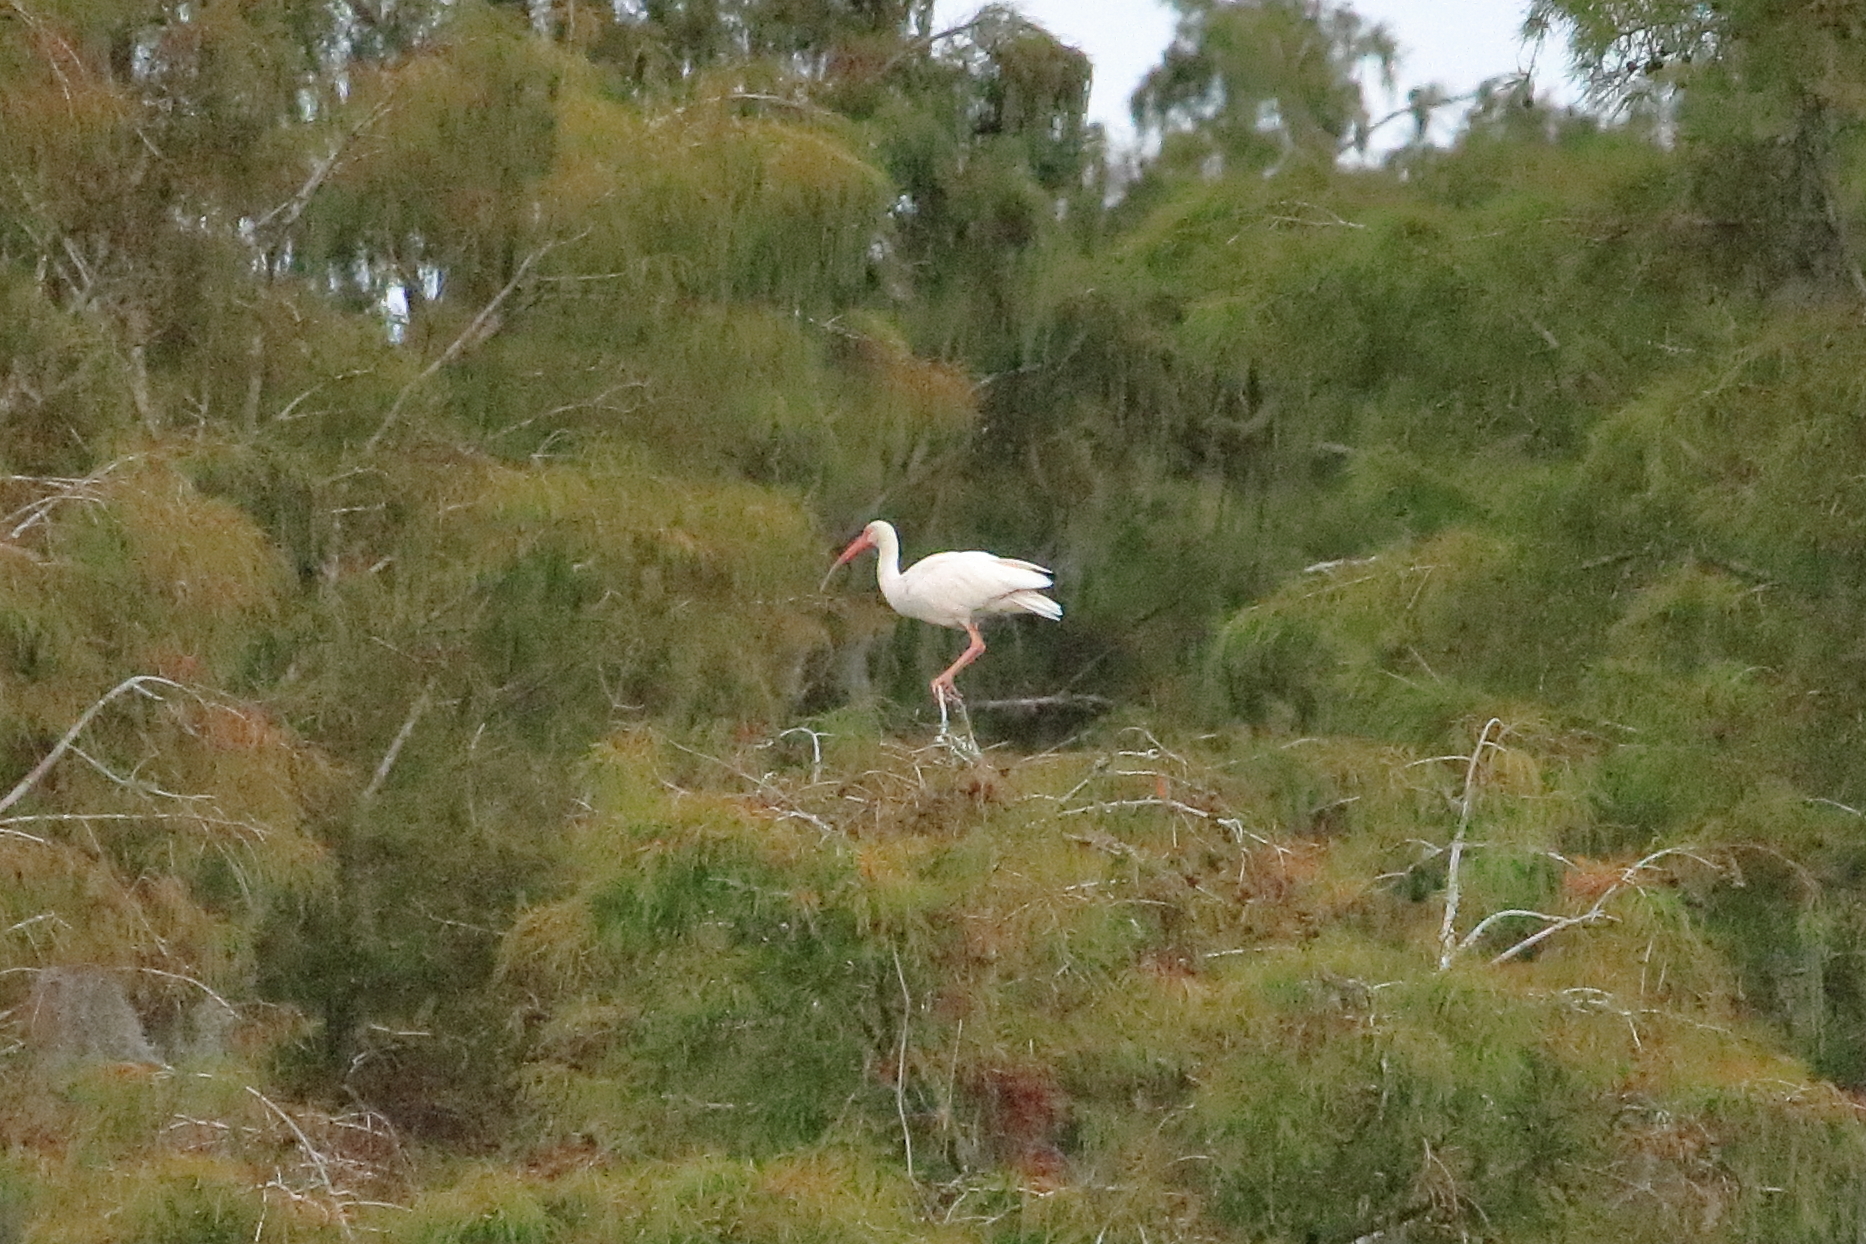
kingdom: Animalia
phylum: Chordata
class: Aves
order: Pelecaniformes
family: Threskiornithidae
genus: Eudocimus
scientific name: Eudocimus albus
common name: White ibis
